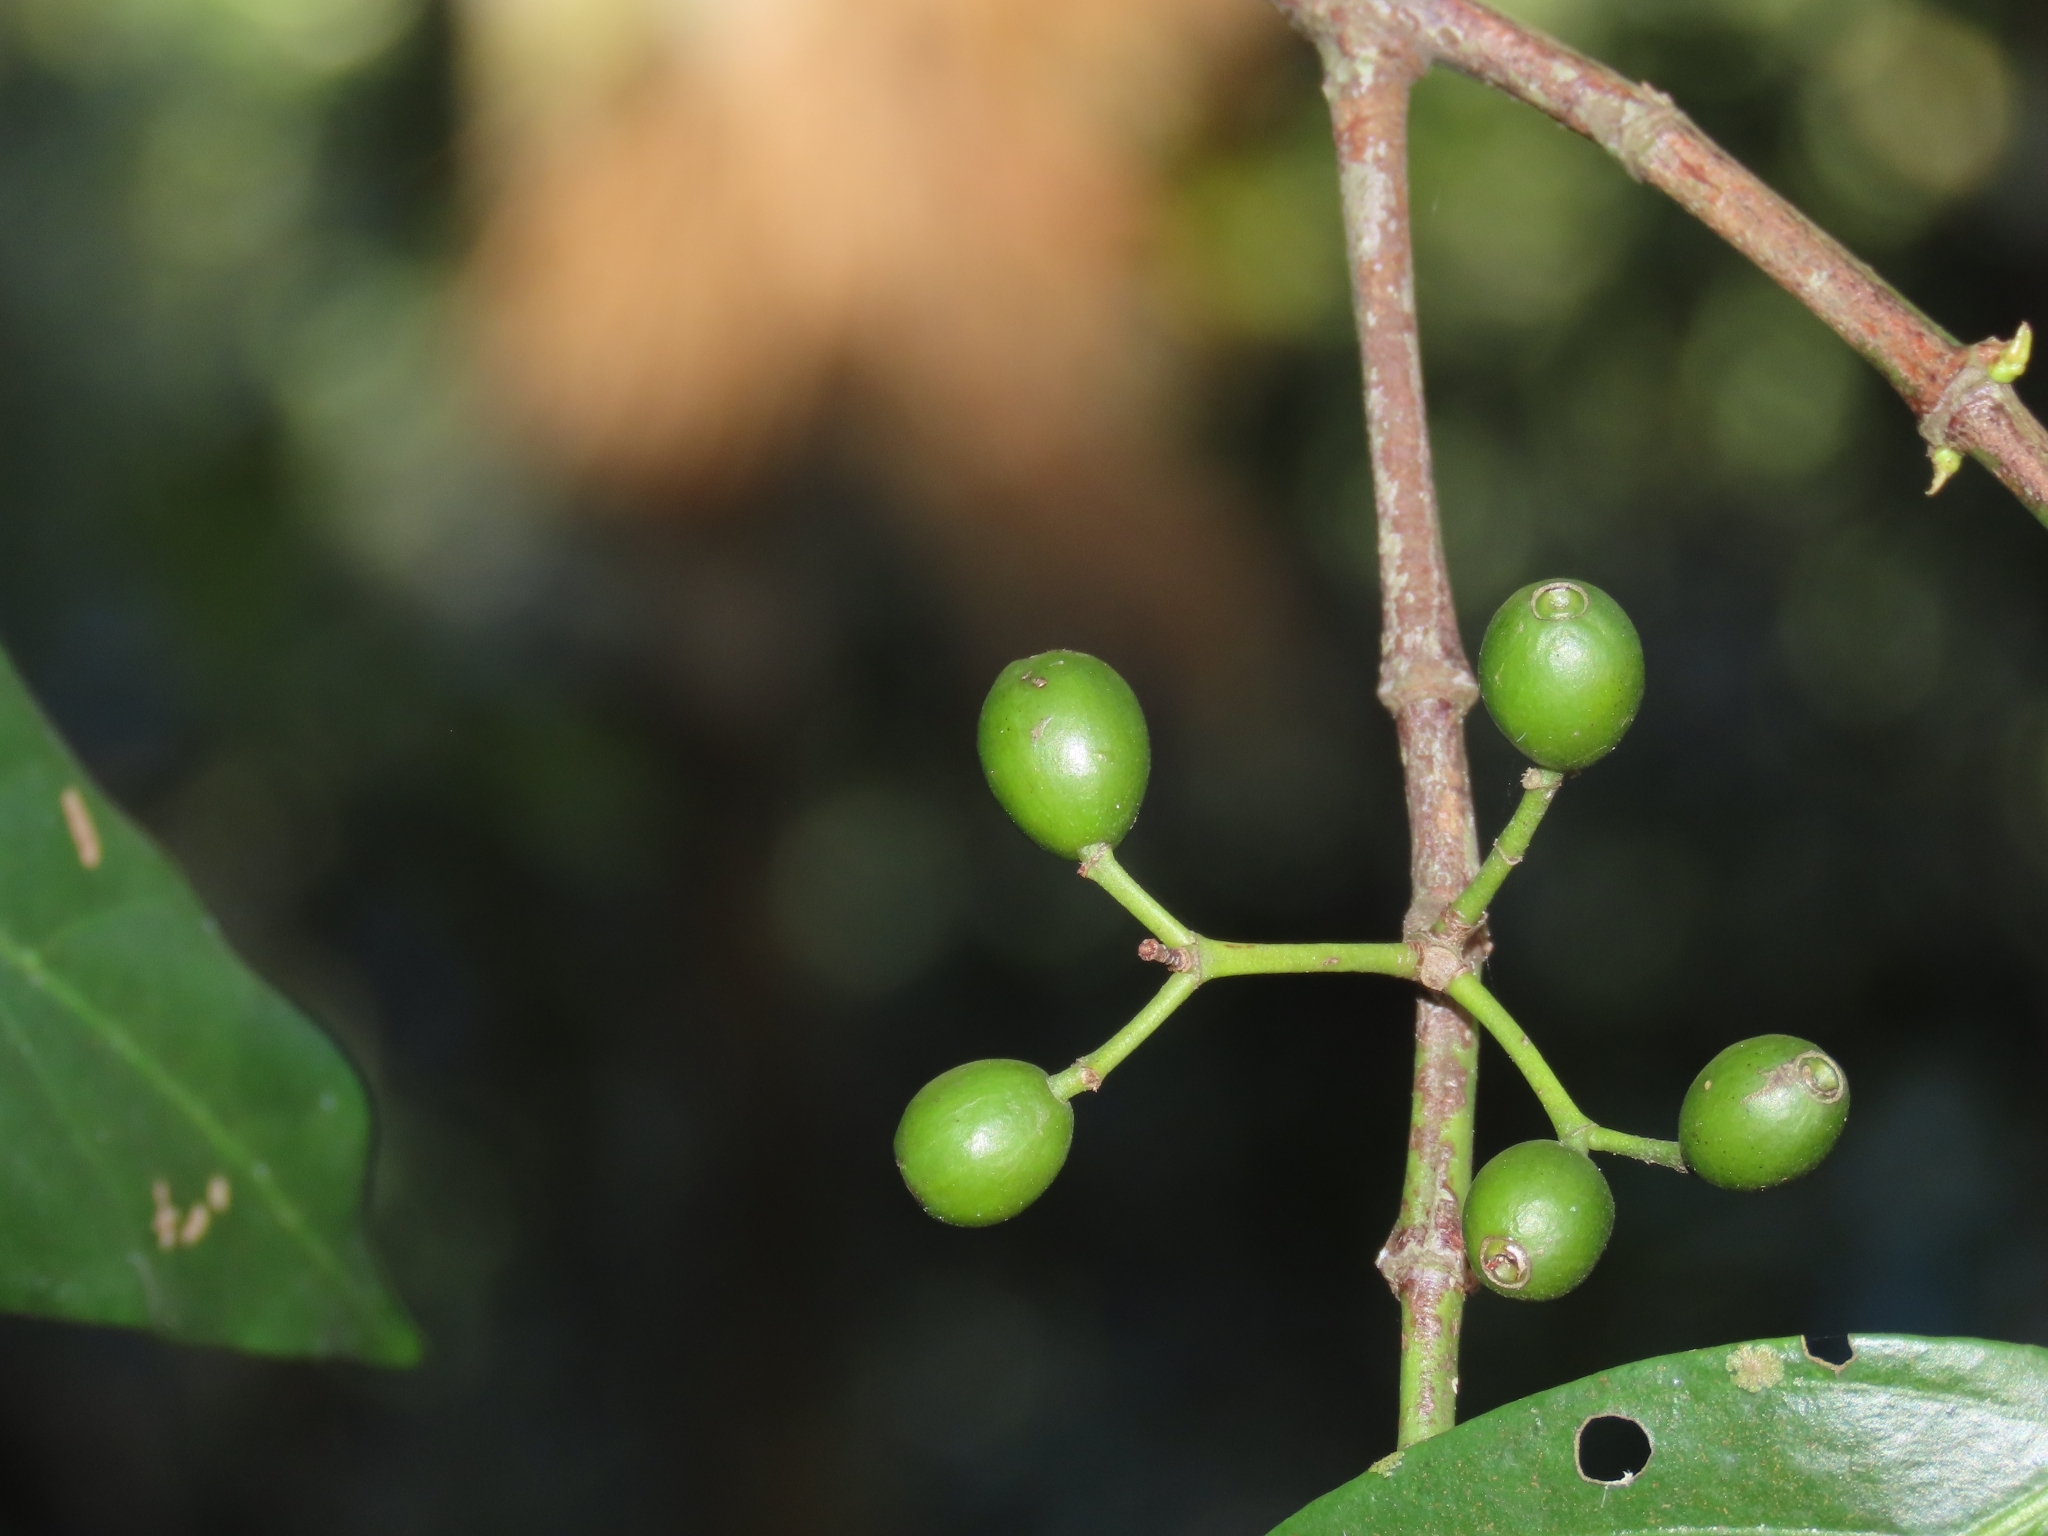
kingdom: Plantae
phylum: Tracheophyta
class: Magnoliopsida
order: Gentianales
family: Rubiaceae
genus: Aidia
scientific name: Aidia cochinchinensis
